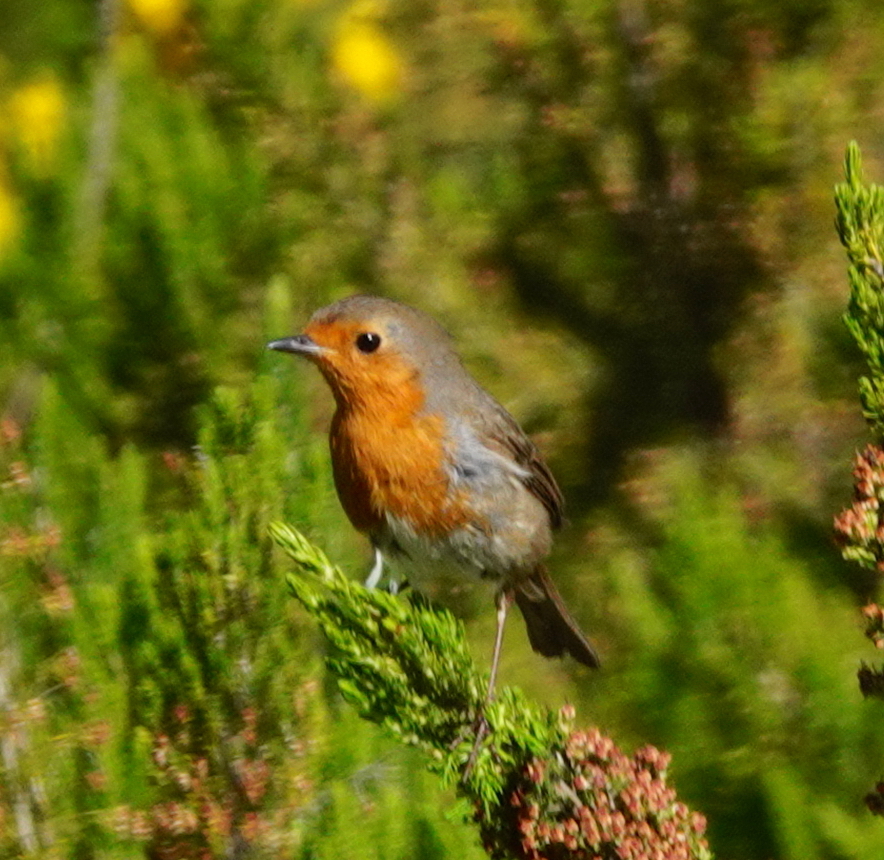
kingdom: Animalia
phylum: Chordata
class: Aves
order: Passeriformes
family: Muscicapidae
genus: Erithacus
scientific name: Erithacus rubecula
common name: European robin
